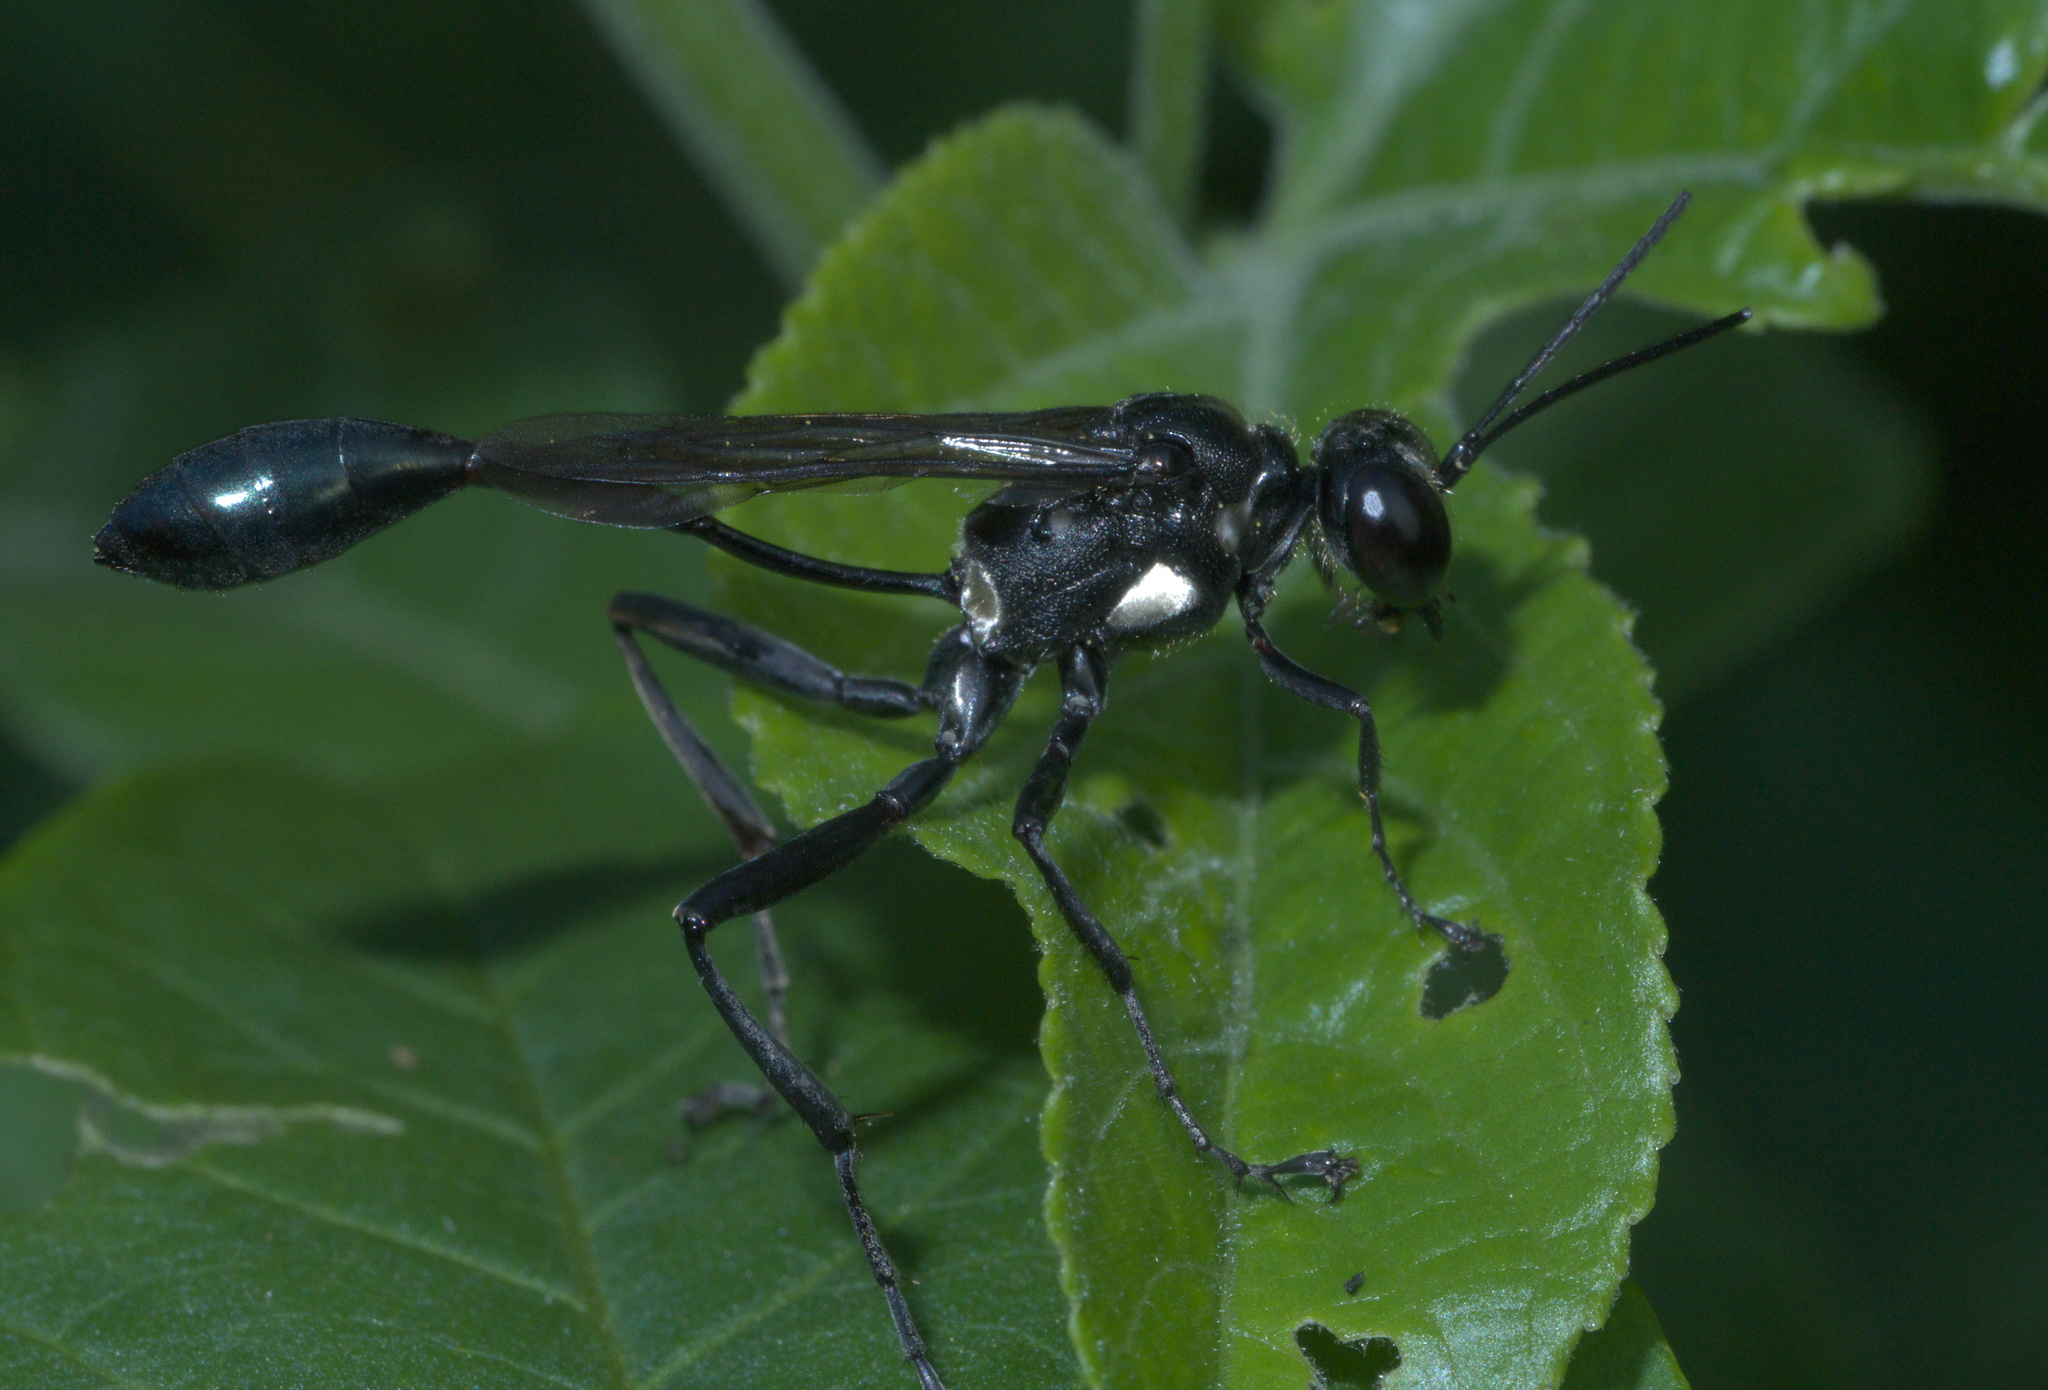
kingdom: Animalia
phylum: Arthropoda
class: Insecta
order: Hymenoptera
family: Sphecidae
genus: Eremnophila
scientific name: Eremnophila aureonotata
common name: Gold-marked thread-waisted wasp
